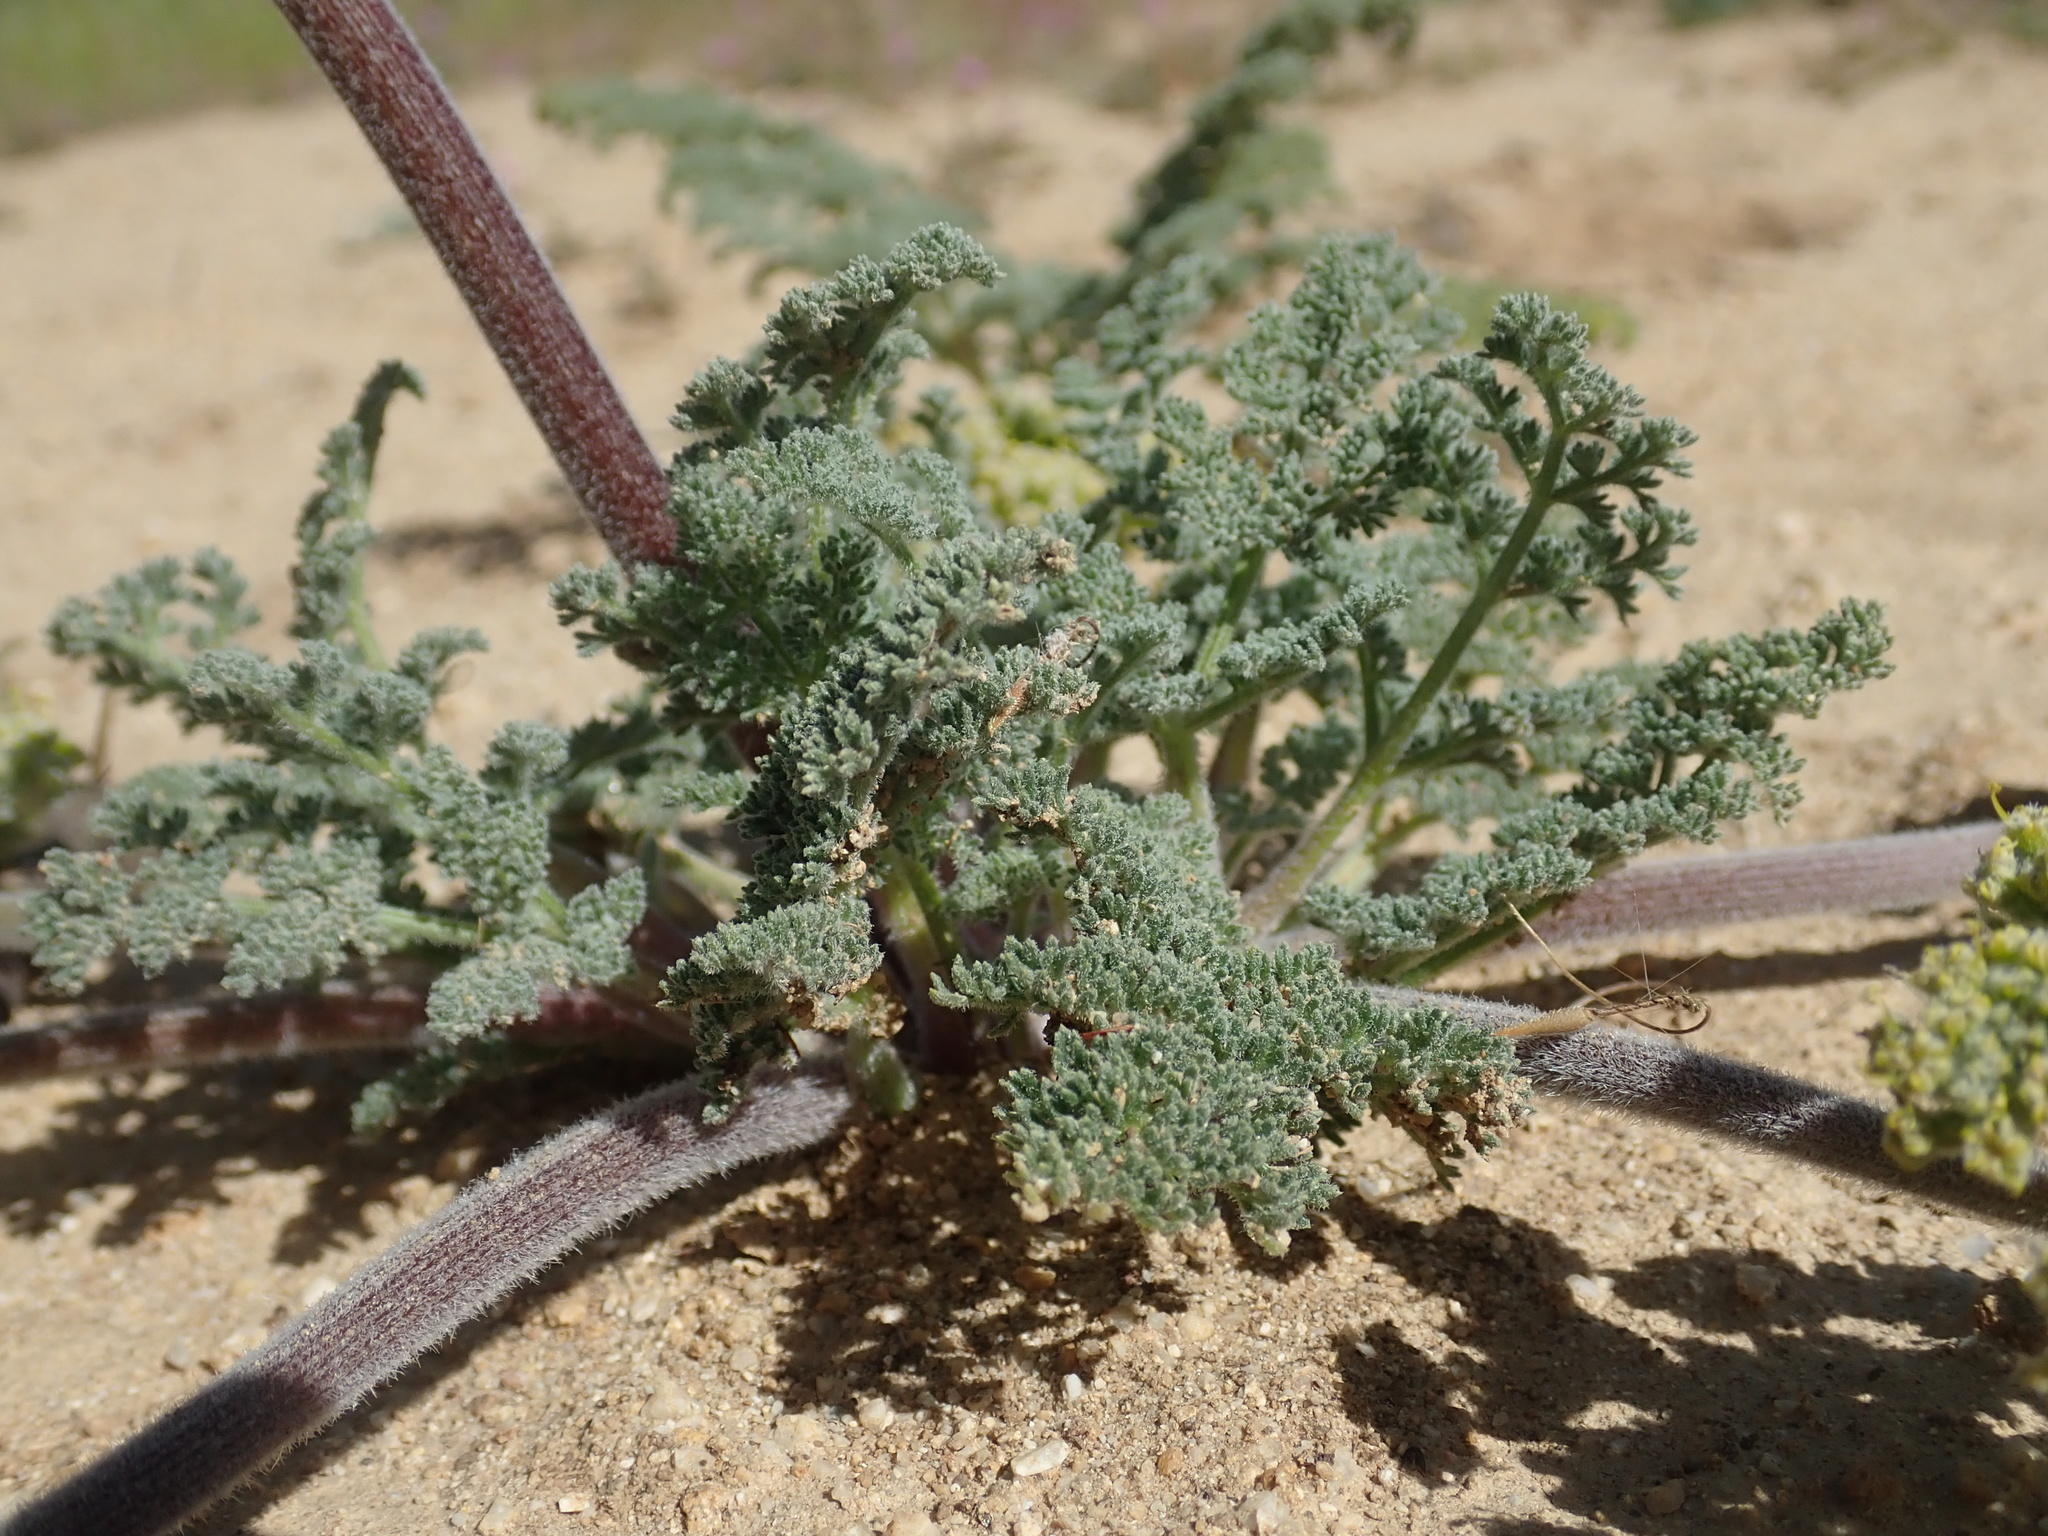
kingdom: Plantae
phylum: Tracheophyta
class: Magnoliopsida
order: Apiales
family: Apiaceae
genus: Lomatium
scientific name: Lomatium dasycarpum
